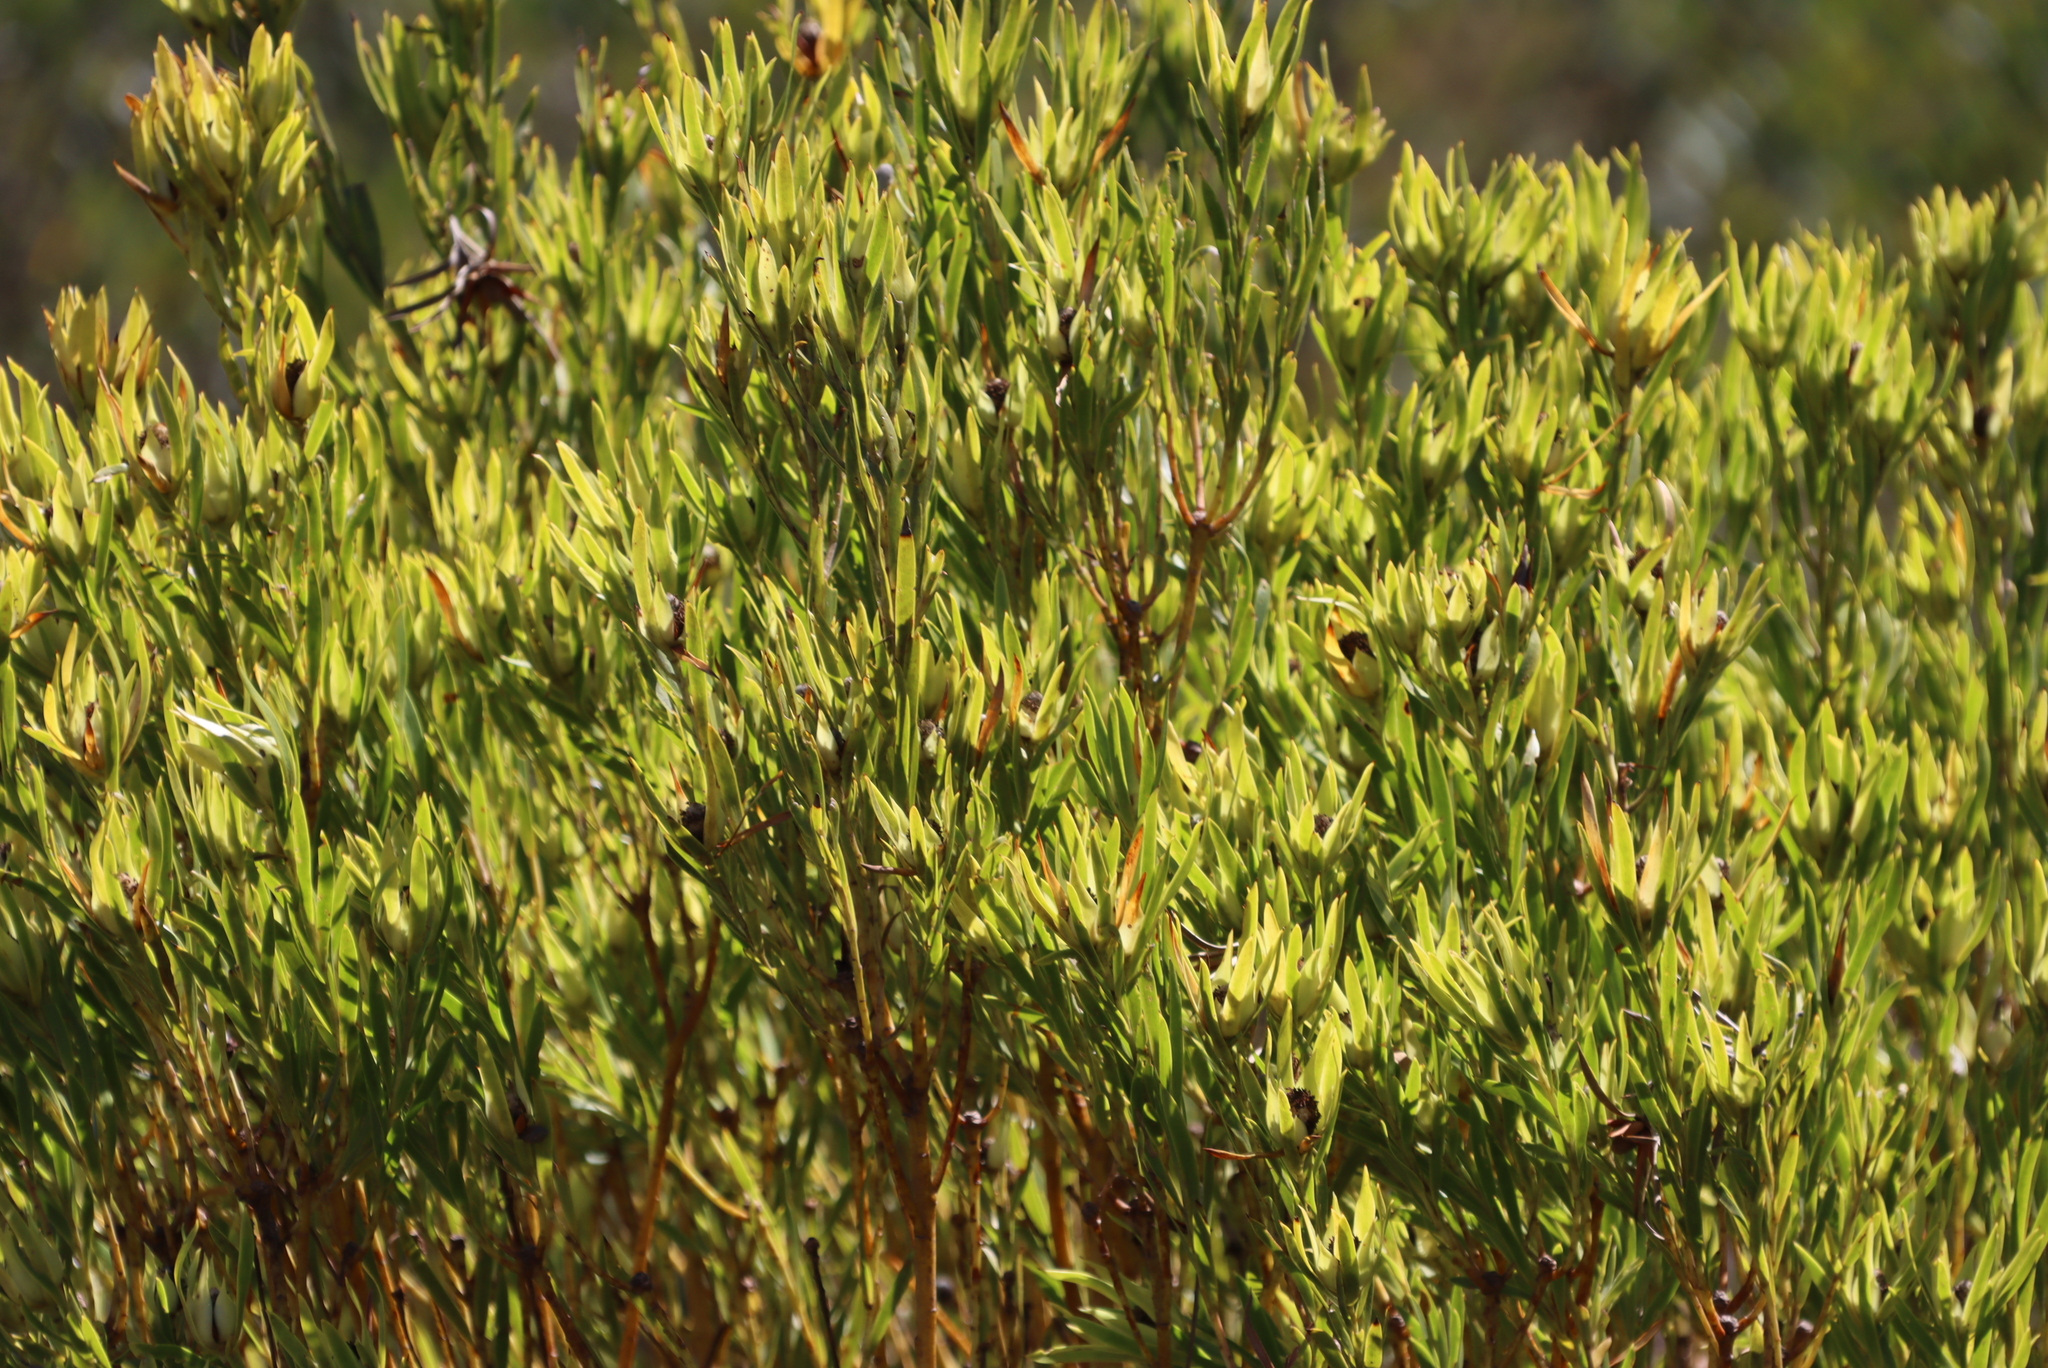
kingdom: Plantae
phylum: Tracheophyta
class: Magnoliopsida
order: Proteales
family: Proteaceae
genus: Leucadendron
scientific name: Leucadendron xanthoconus
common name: Sickle-leaf conebush
